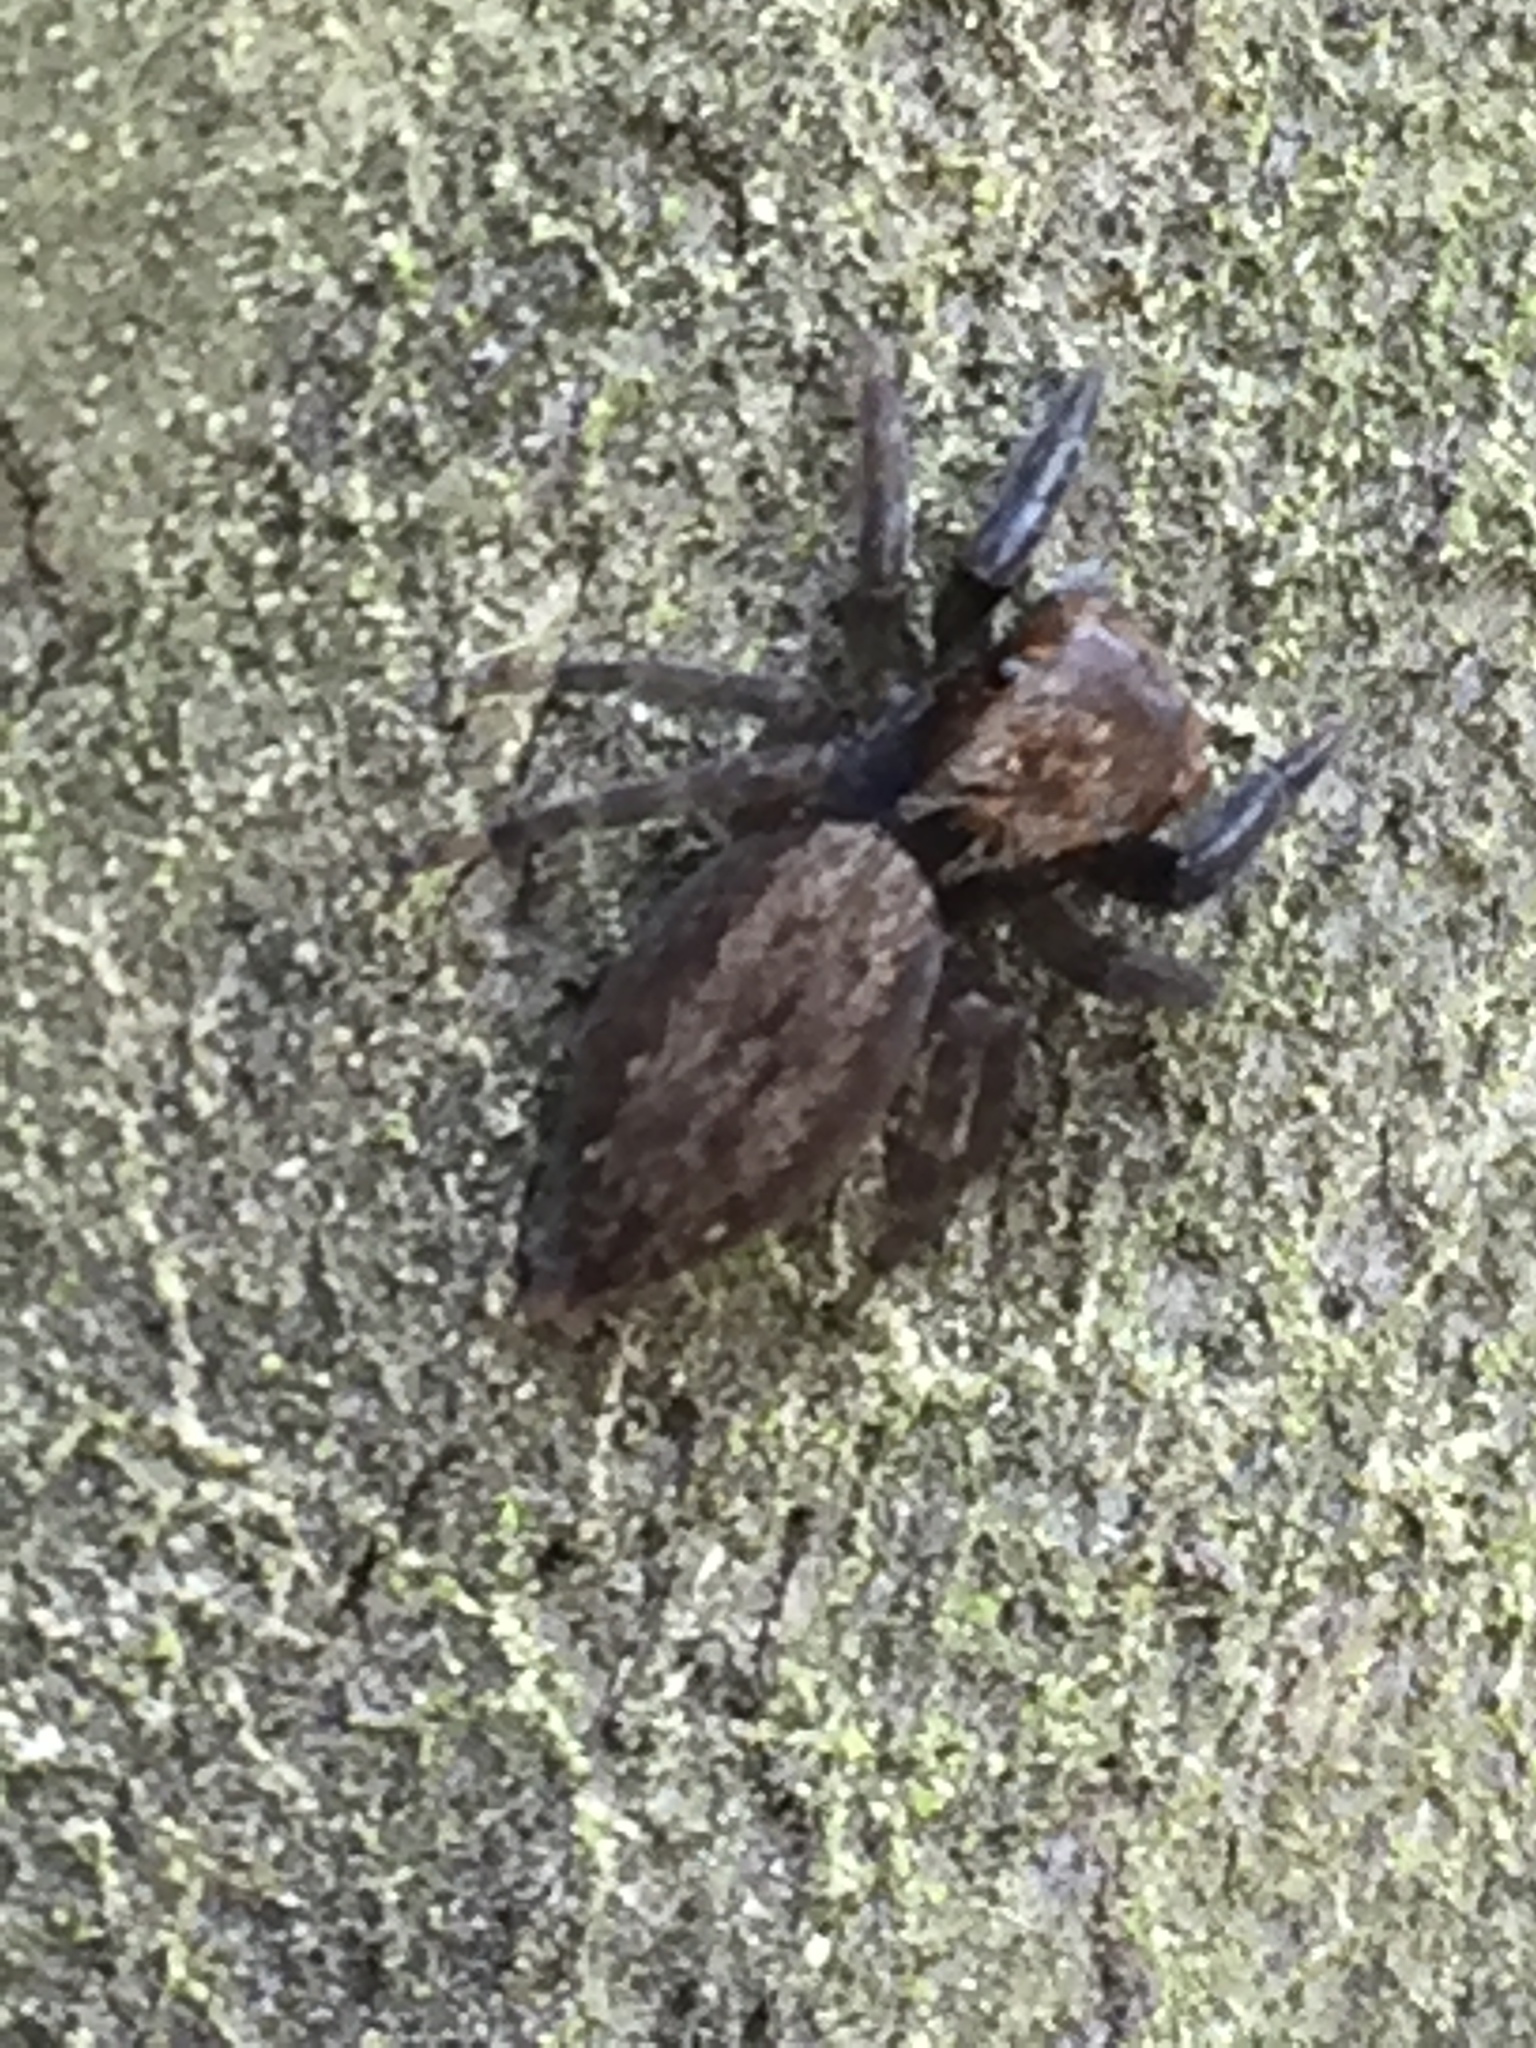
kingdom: Animalia
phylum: Arthropoda
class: Arachnida
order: Araneae
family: Salticidae
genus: Trite
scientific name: Trite auricoma
